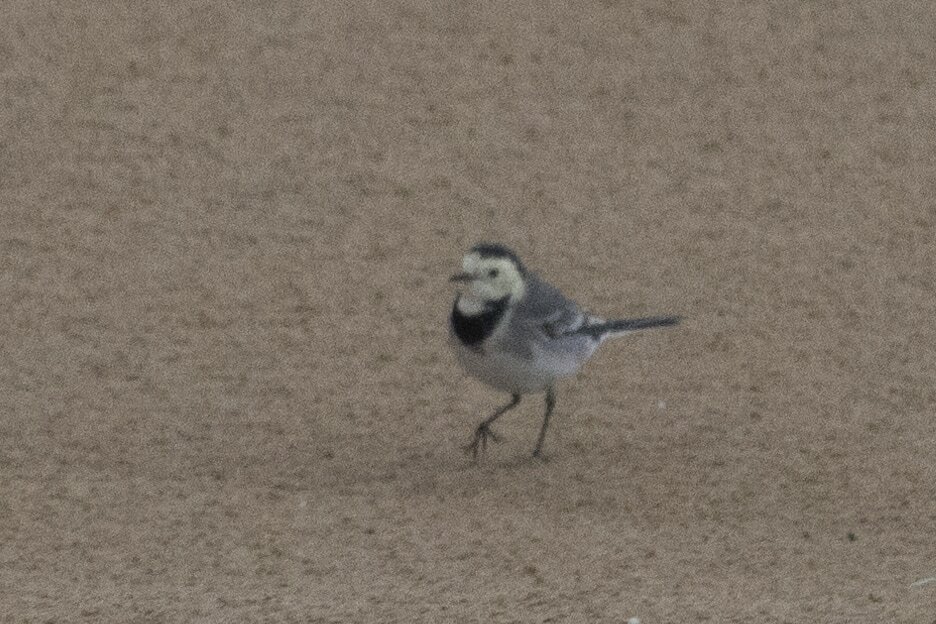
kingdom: Animalia
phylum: Chordata
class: Aves
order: Passeriformes
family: Motacillidae
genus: Motacilla
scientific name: Motacilla alba
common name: White wagtail
